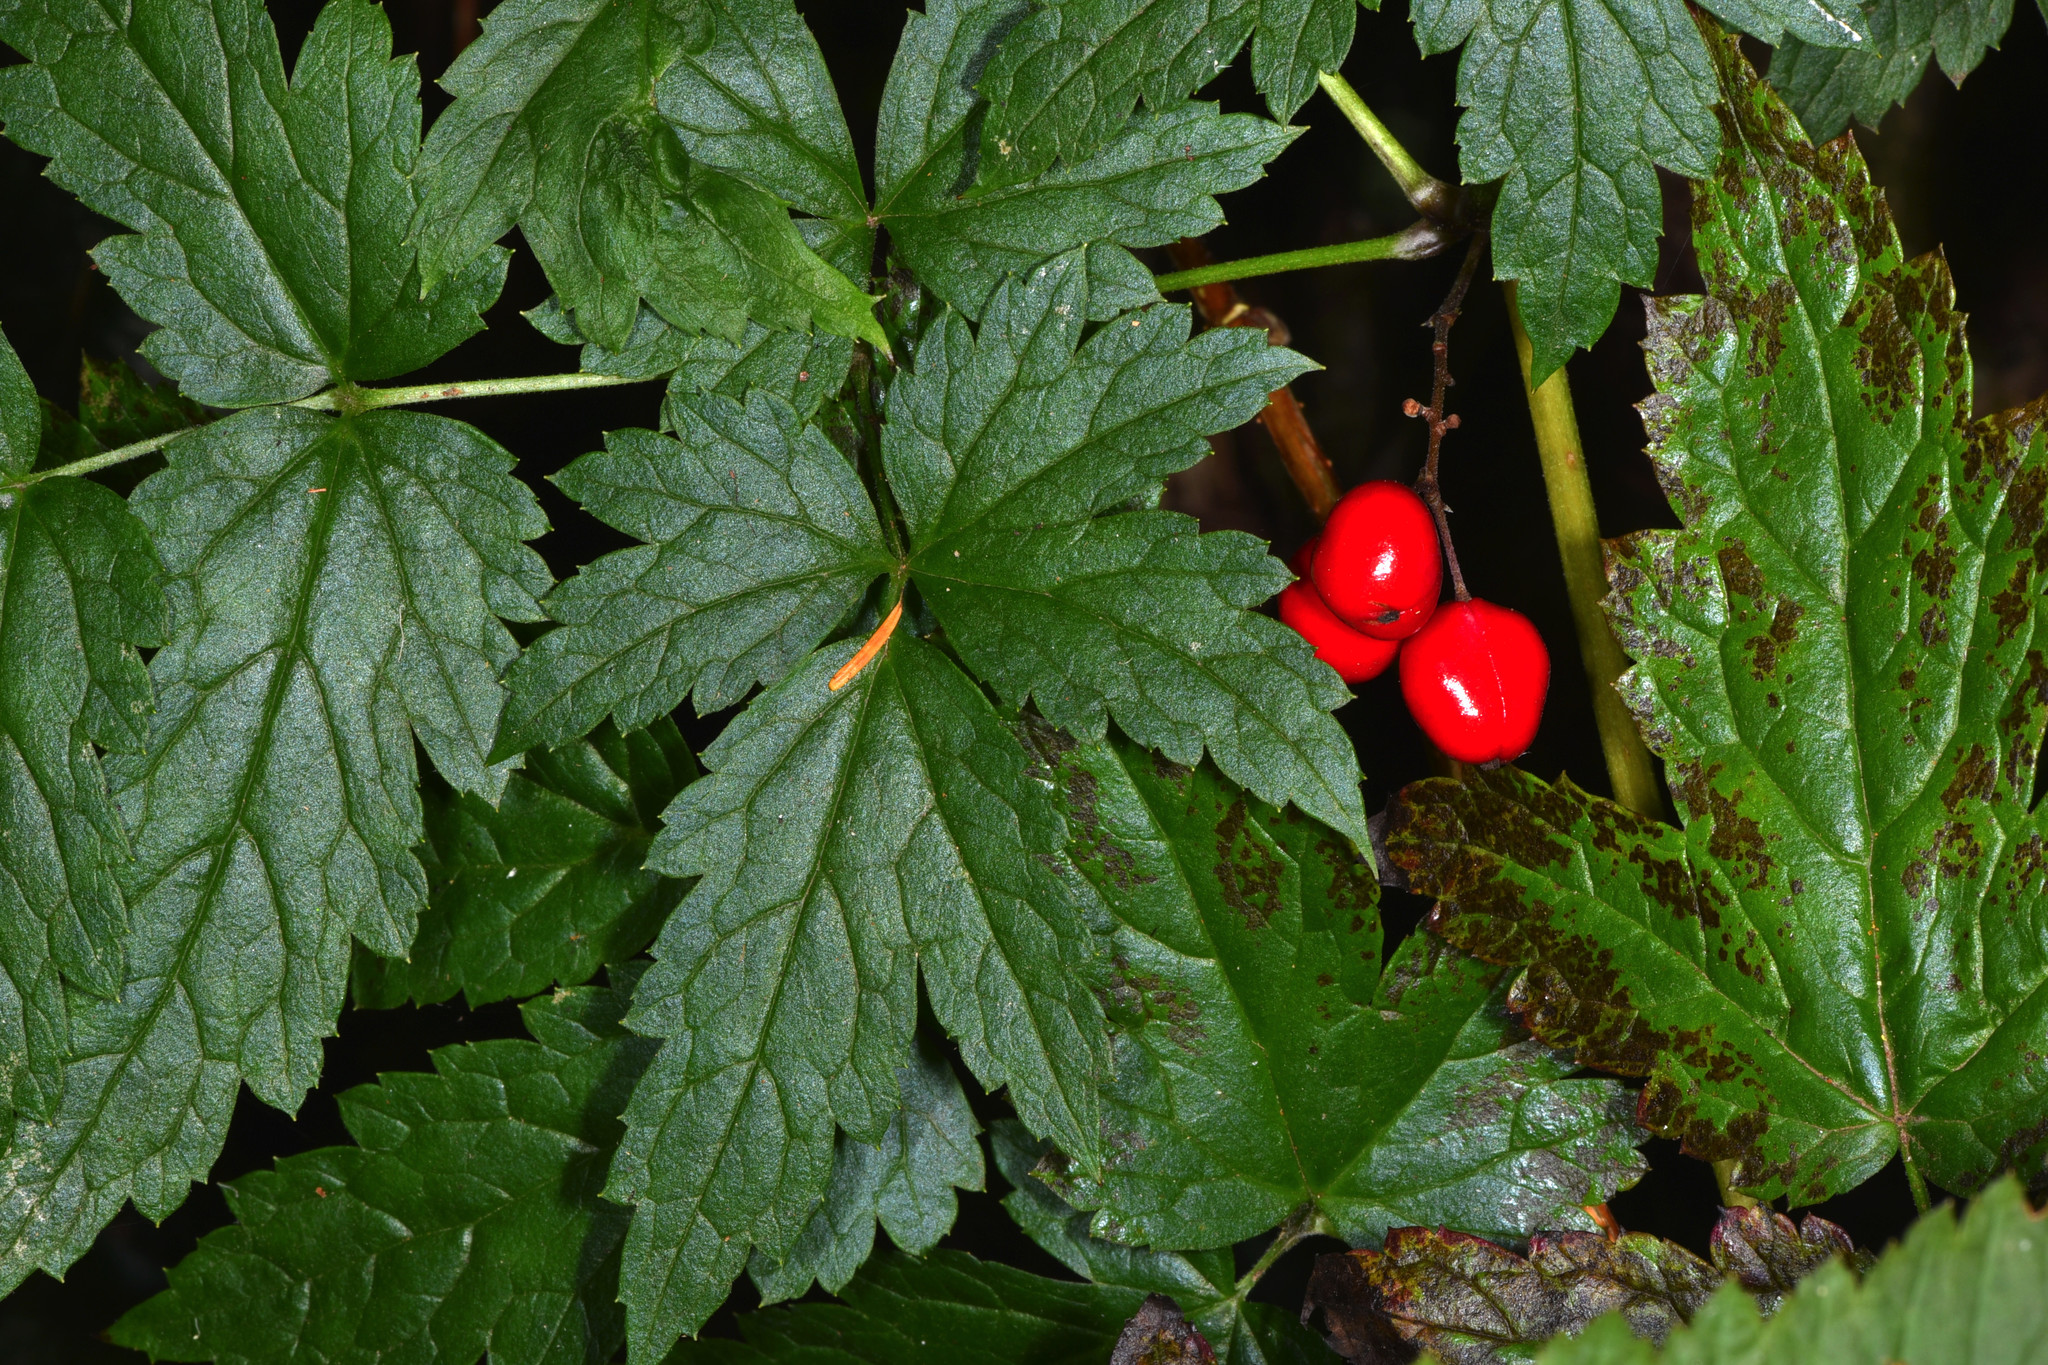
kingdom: Plantae
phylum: Tracheophyta
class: Magnoliopsida
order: Ranunculales
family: Ranunculaceae
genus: Actaea
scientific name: Actaea rubra
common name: Red baneberry
